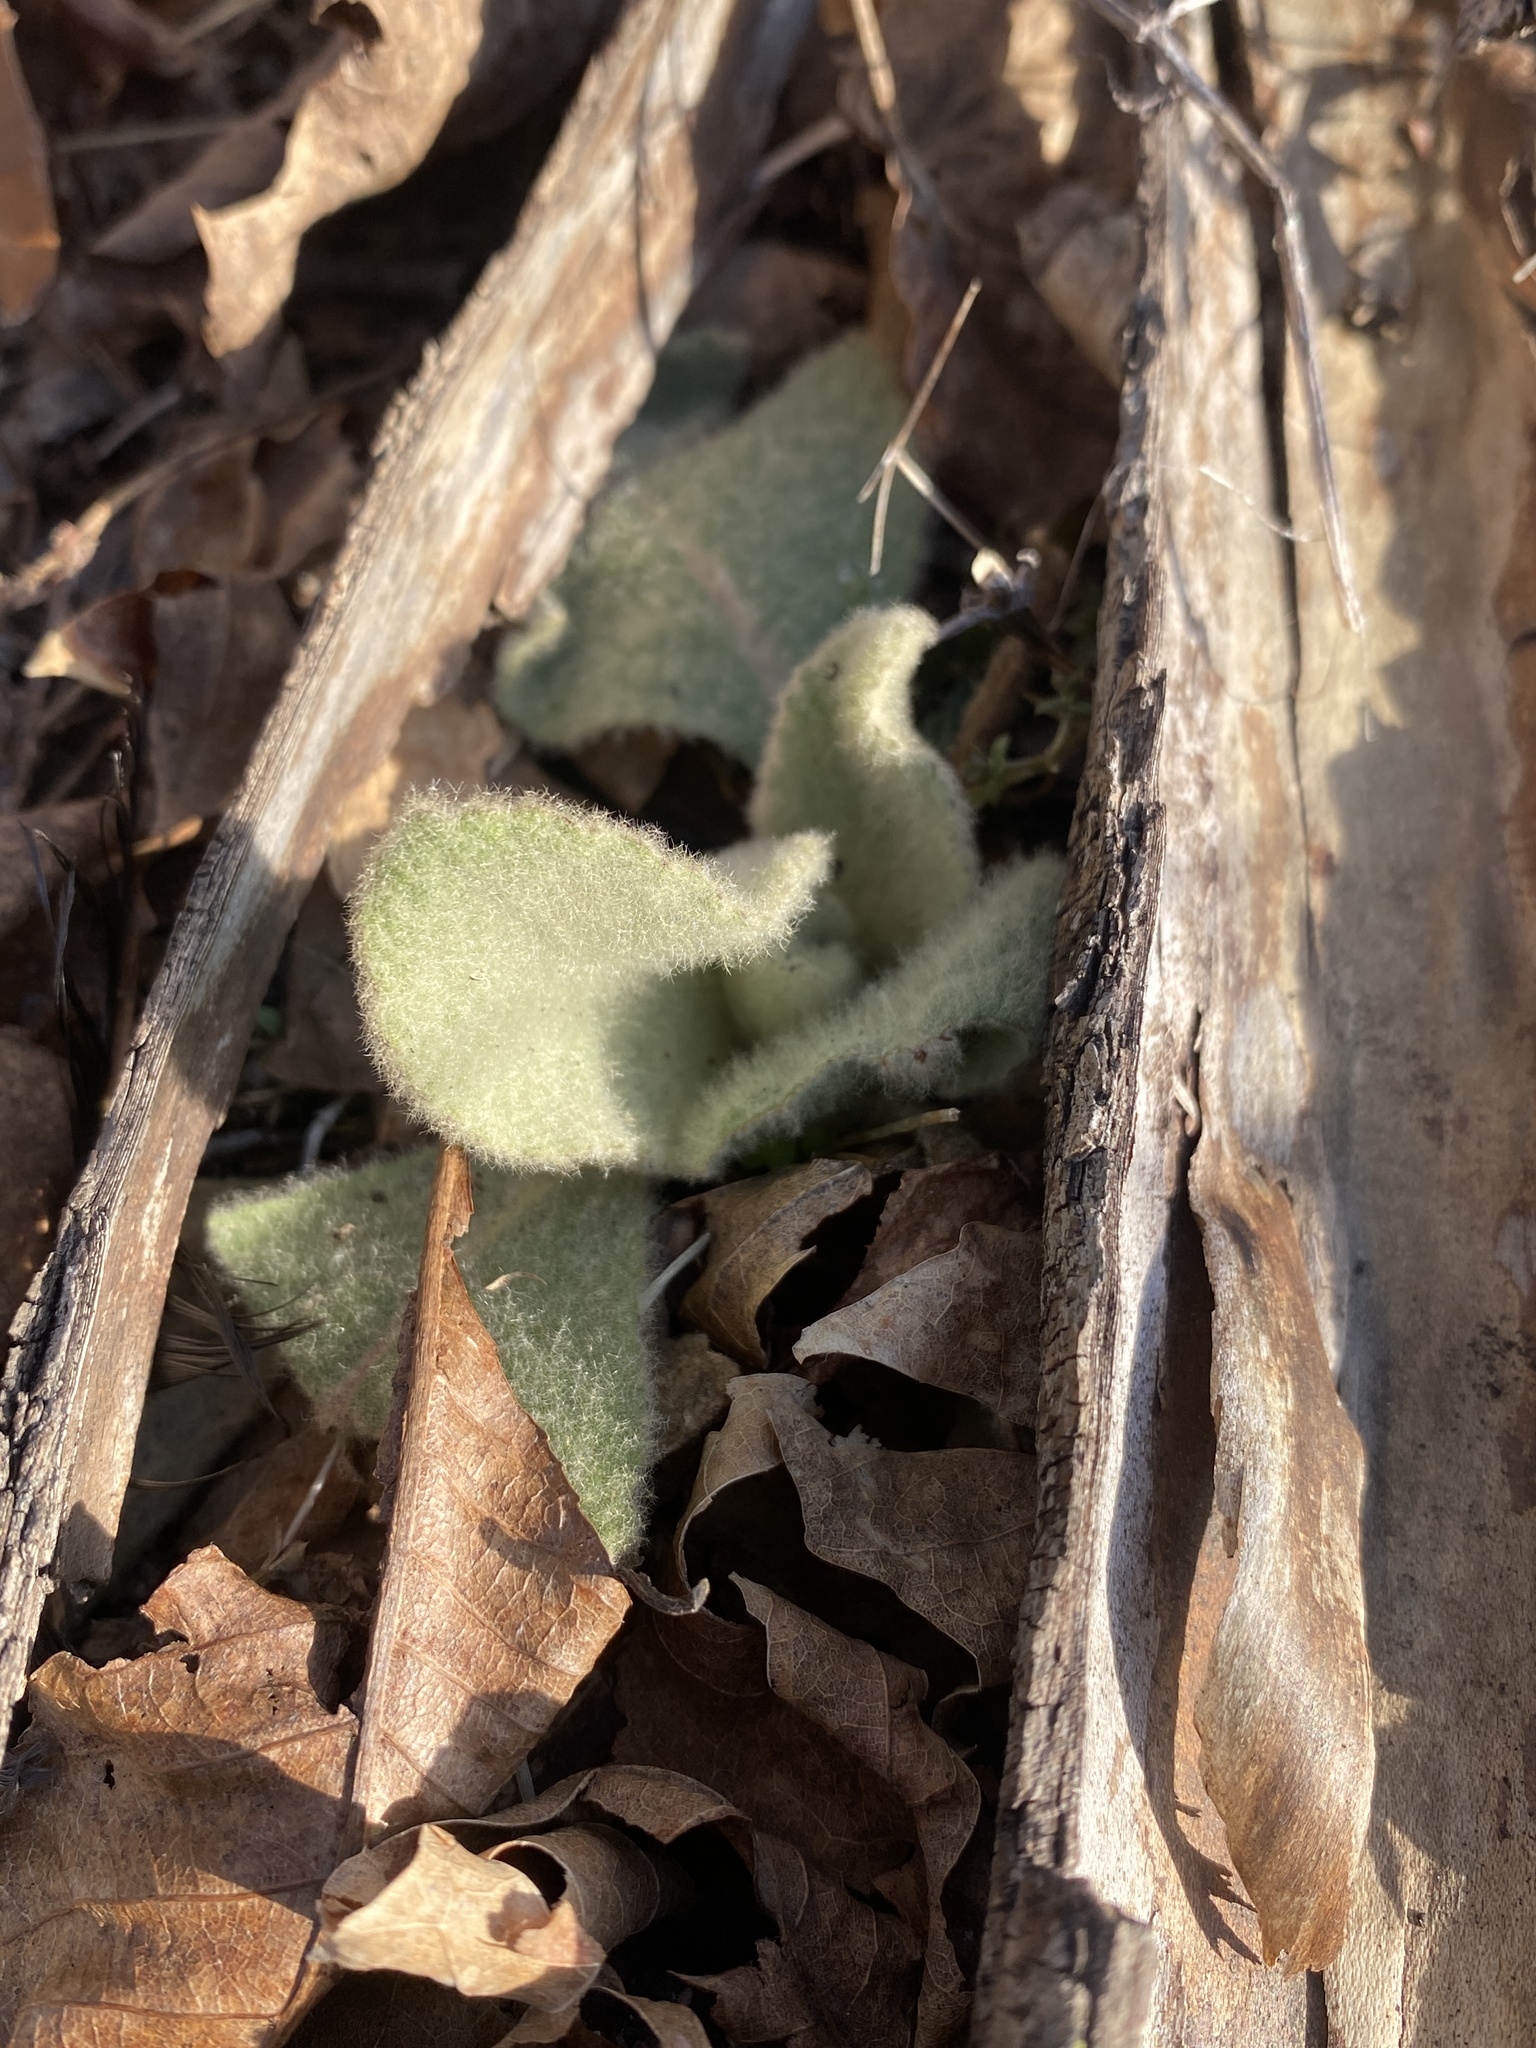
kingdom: Plantae
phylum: Tracheophyta
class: Magnoliopsida
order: Lamiales
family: Scrophulariaceae
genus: Verbascum
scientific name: Verbascum thapsus
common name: Common mullein
